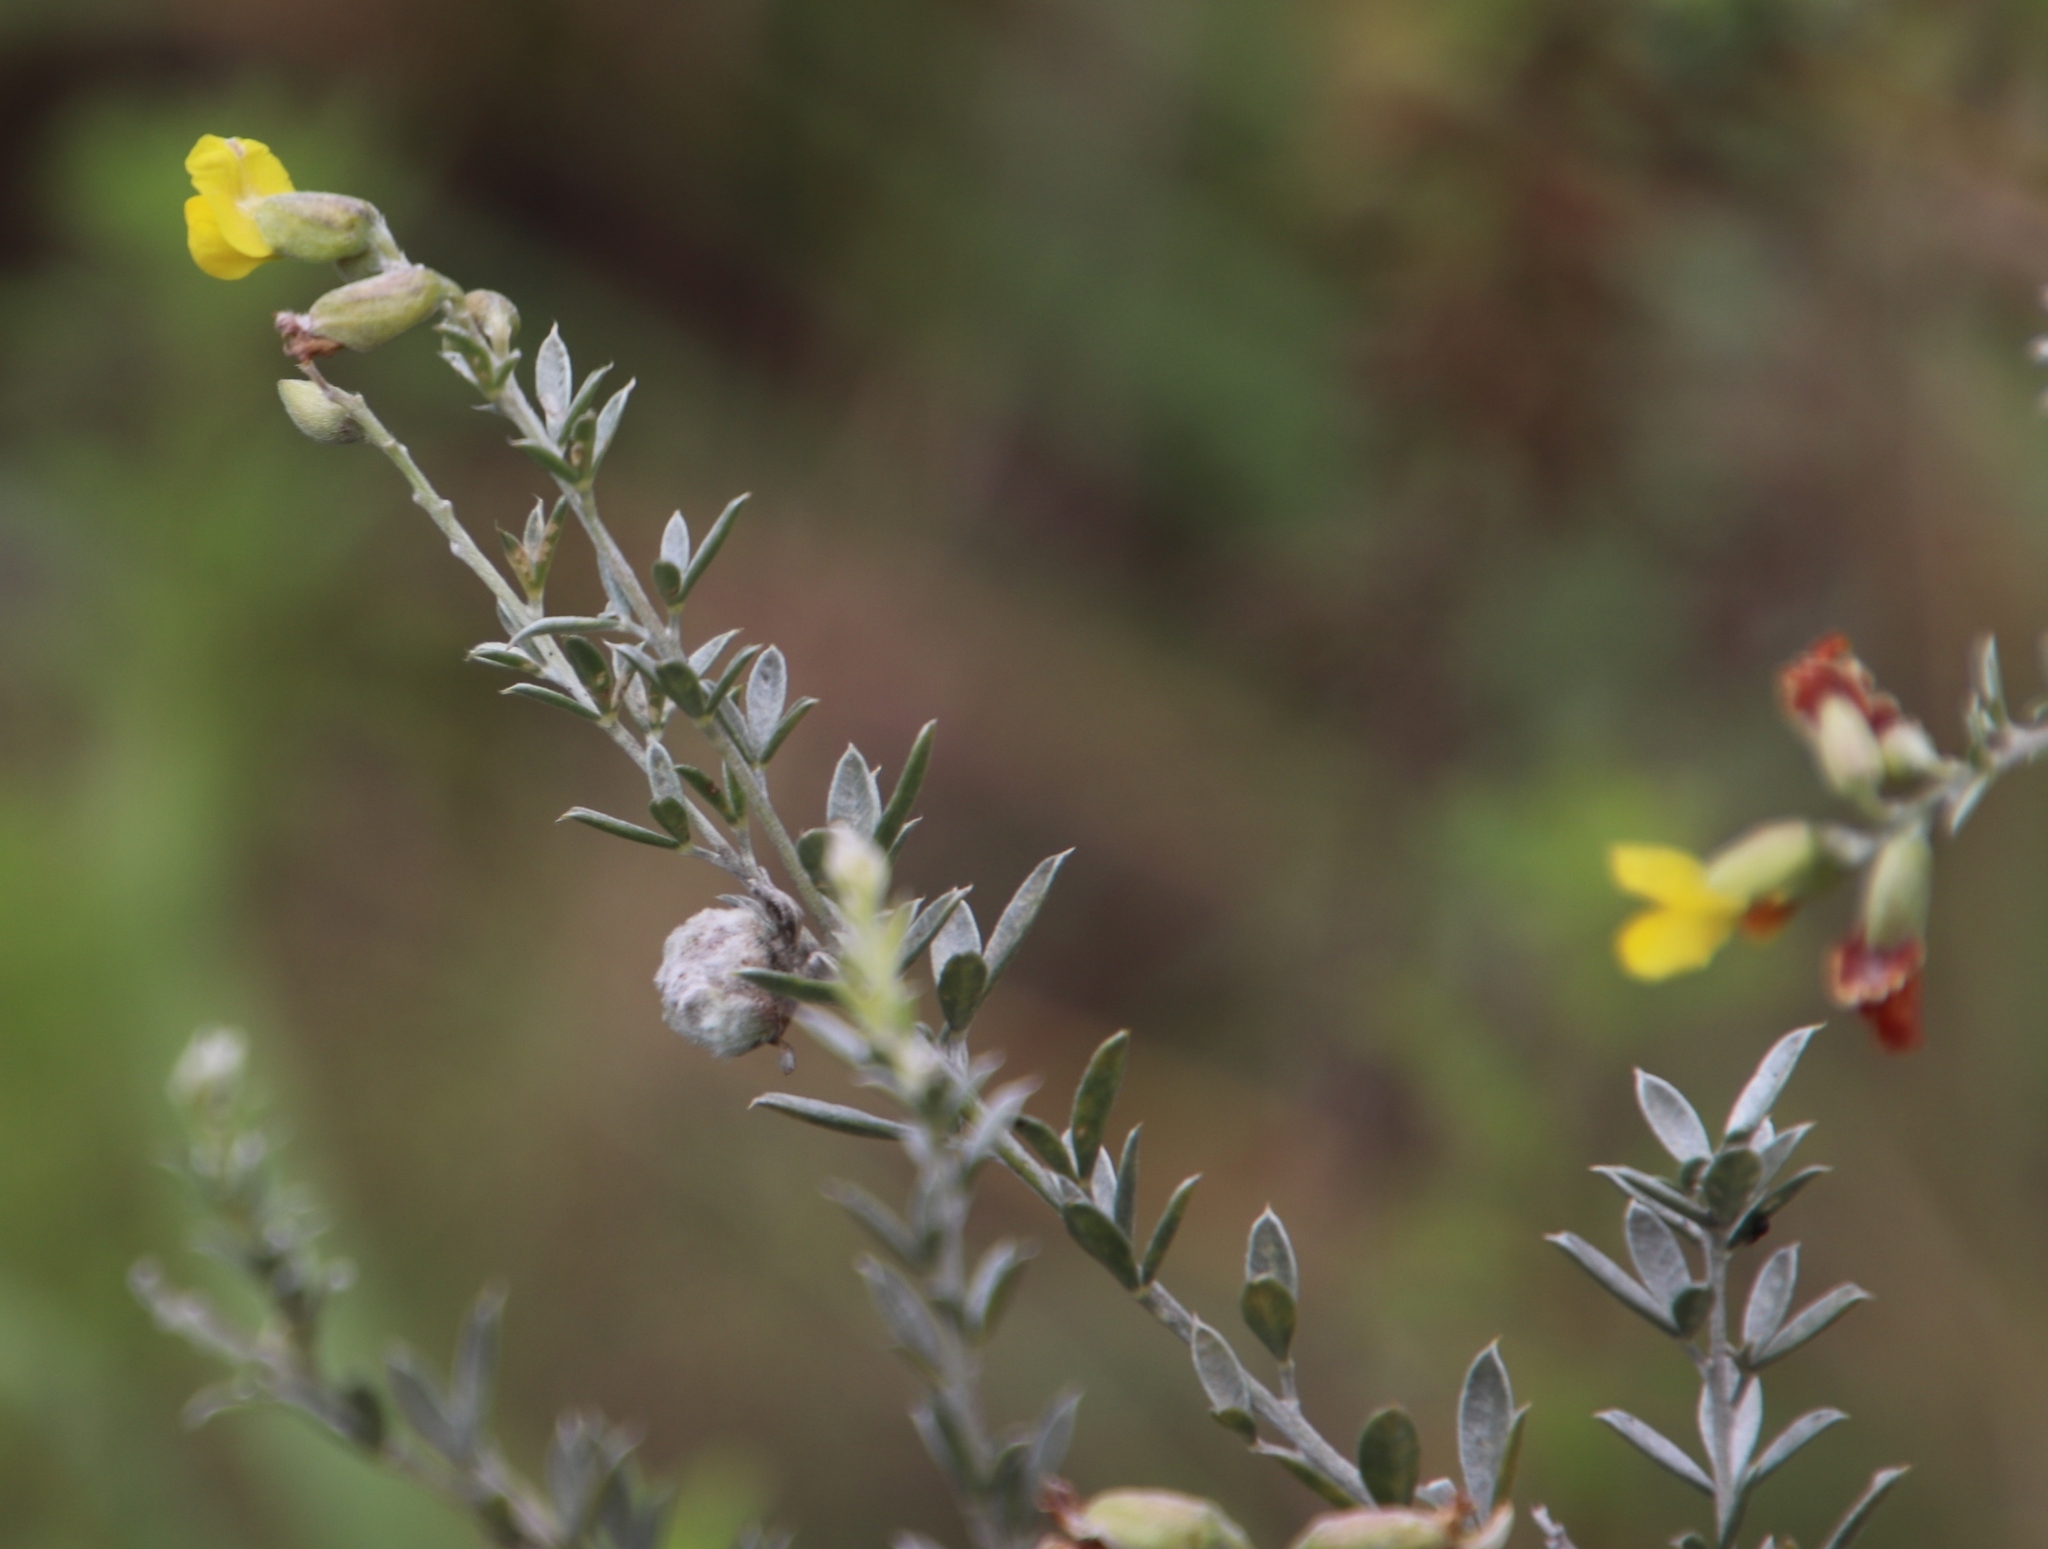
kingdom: Plantae
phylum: Tracheophyta
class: Magnoliopsida
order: Fabales
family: Fabaceae
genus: Pearsonia
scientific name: Pearsonia sessilifolia
